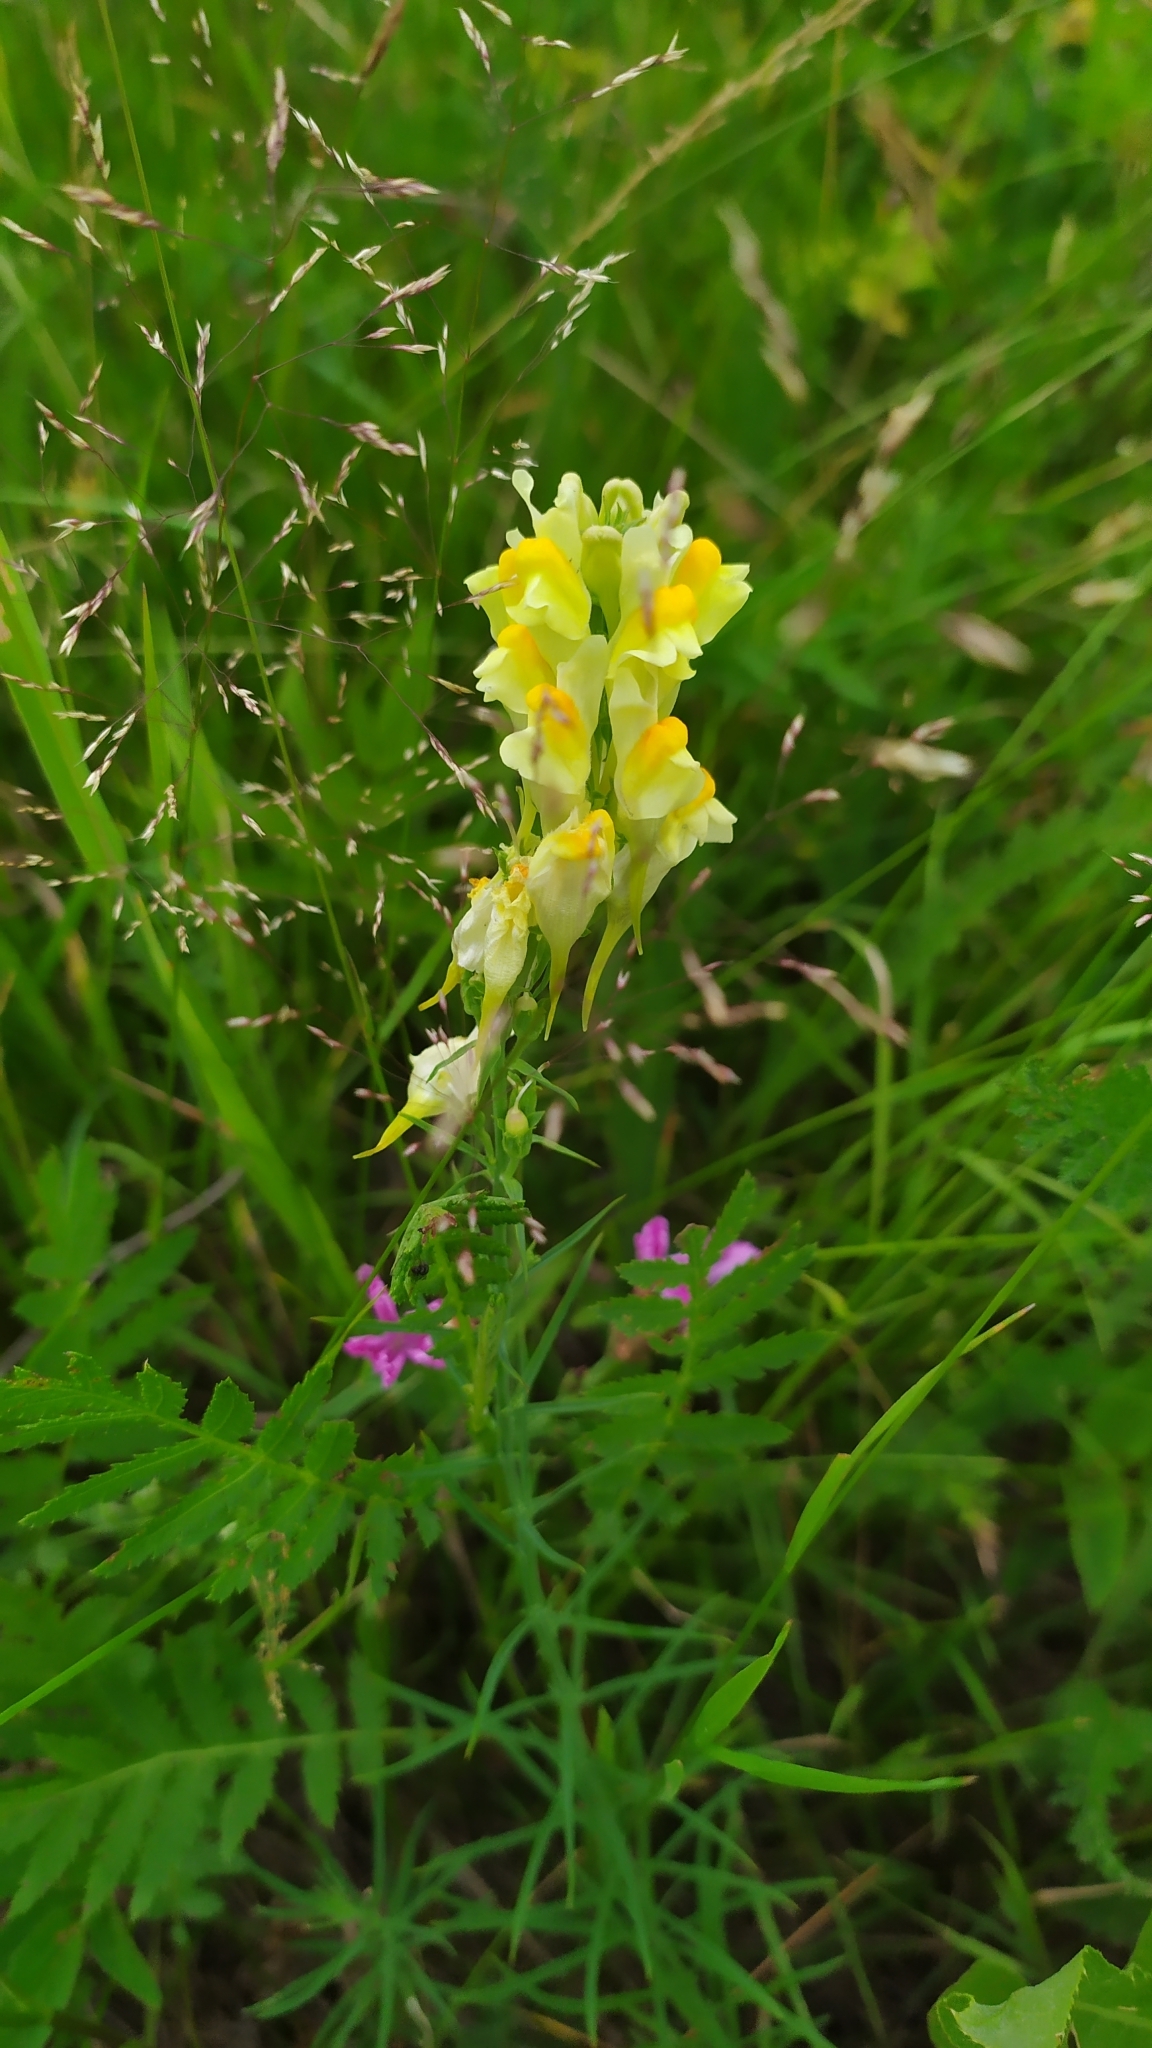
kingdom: Plantae
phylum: Tracheophyta
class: Magnoliopsida
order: Lamiales
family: Plantaginaceae
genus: Linaria
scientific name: Linaria vulgaris
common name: Butter and eggs
